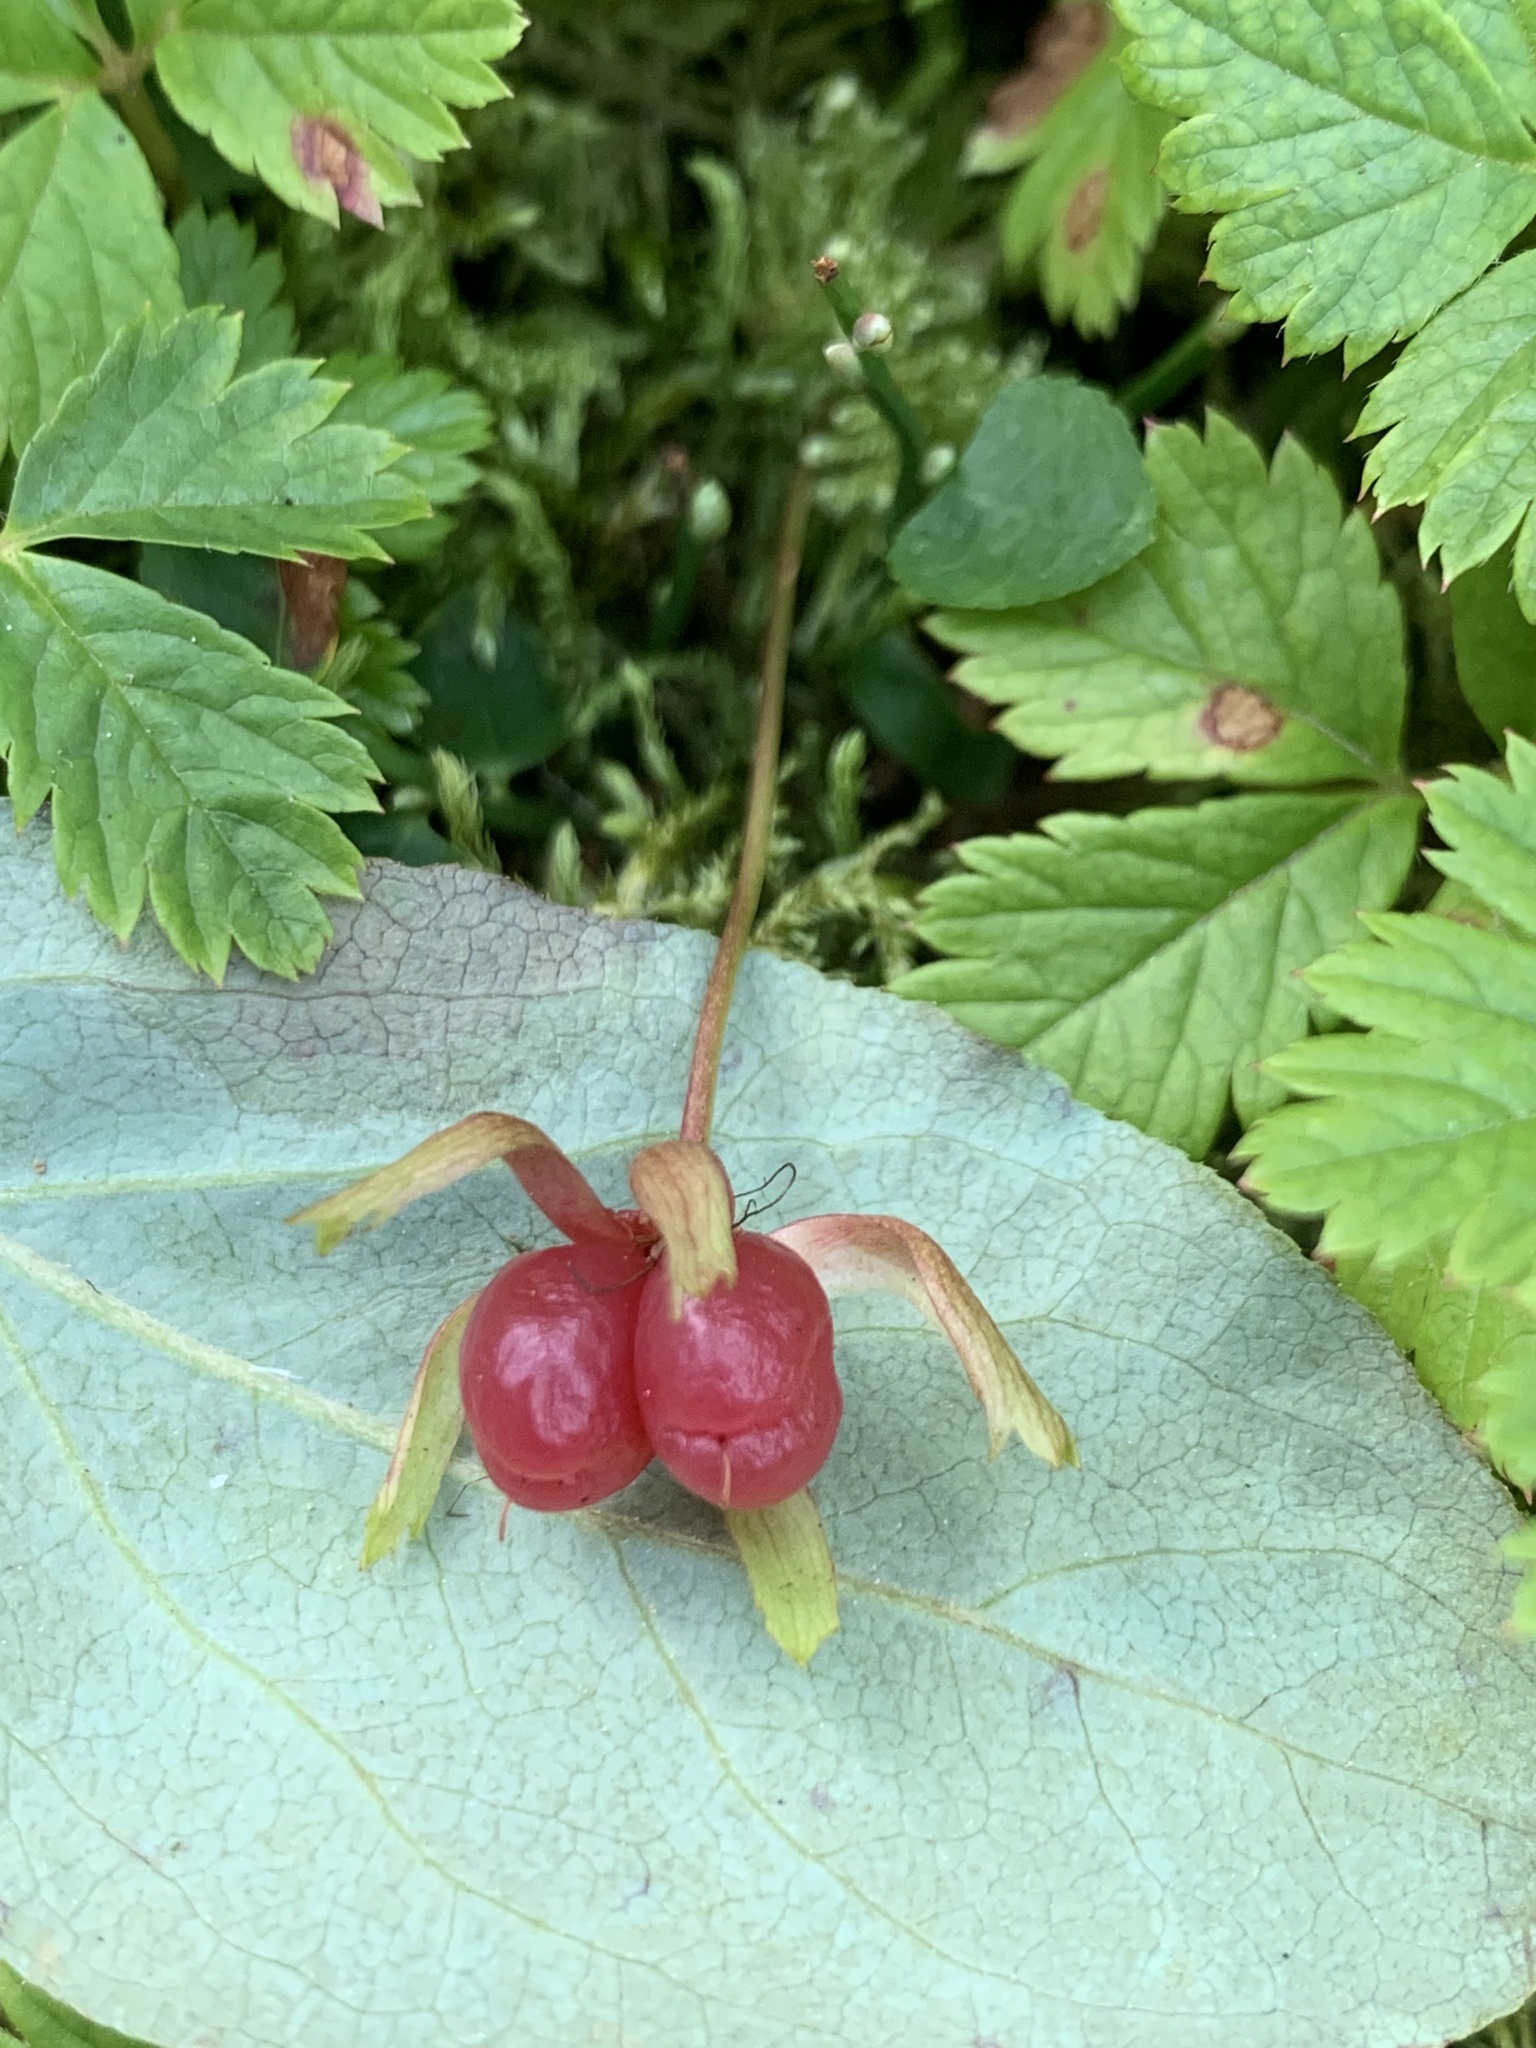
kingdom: Plantae
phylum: Tracheophyta
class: Magnoliopsida
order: Rosales
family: Rosaceae
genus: Rubus
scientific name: Rubus pedatus
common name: Creeping raspberry
